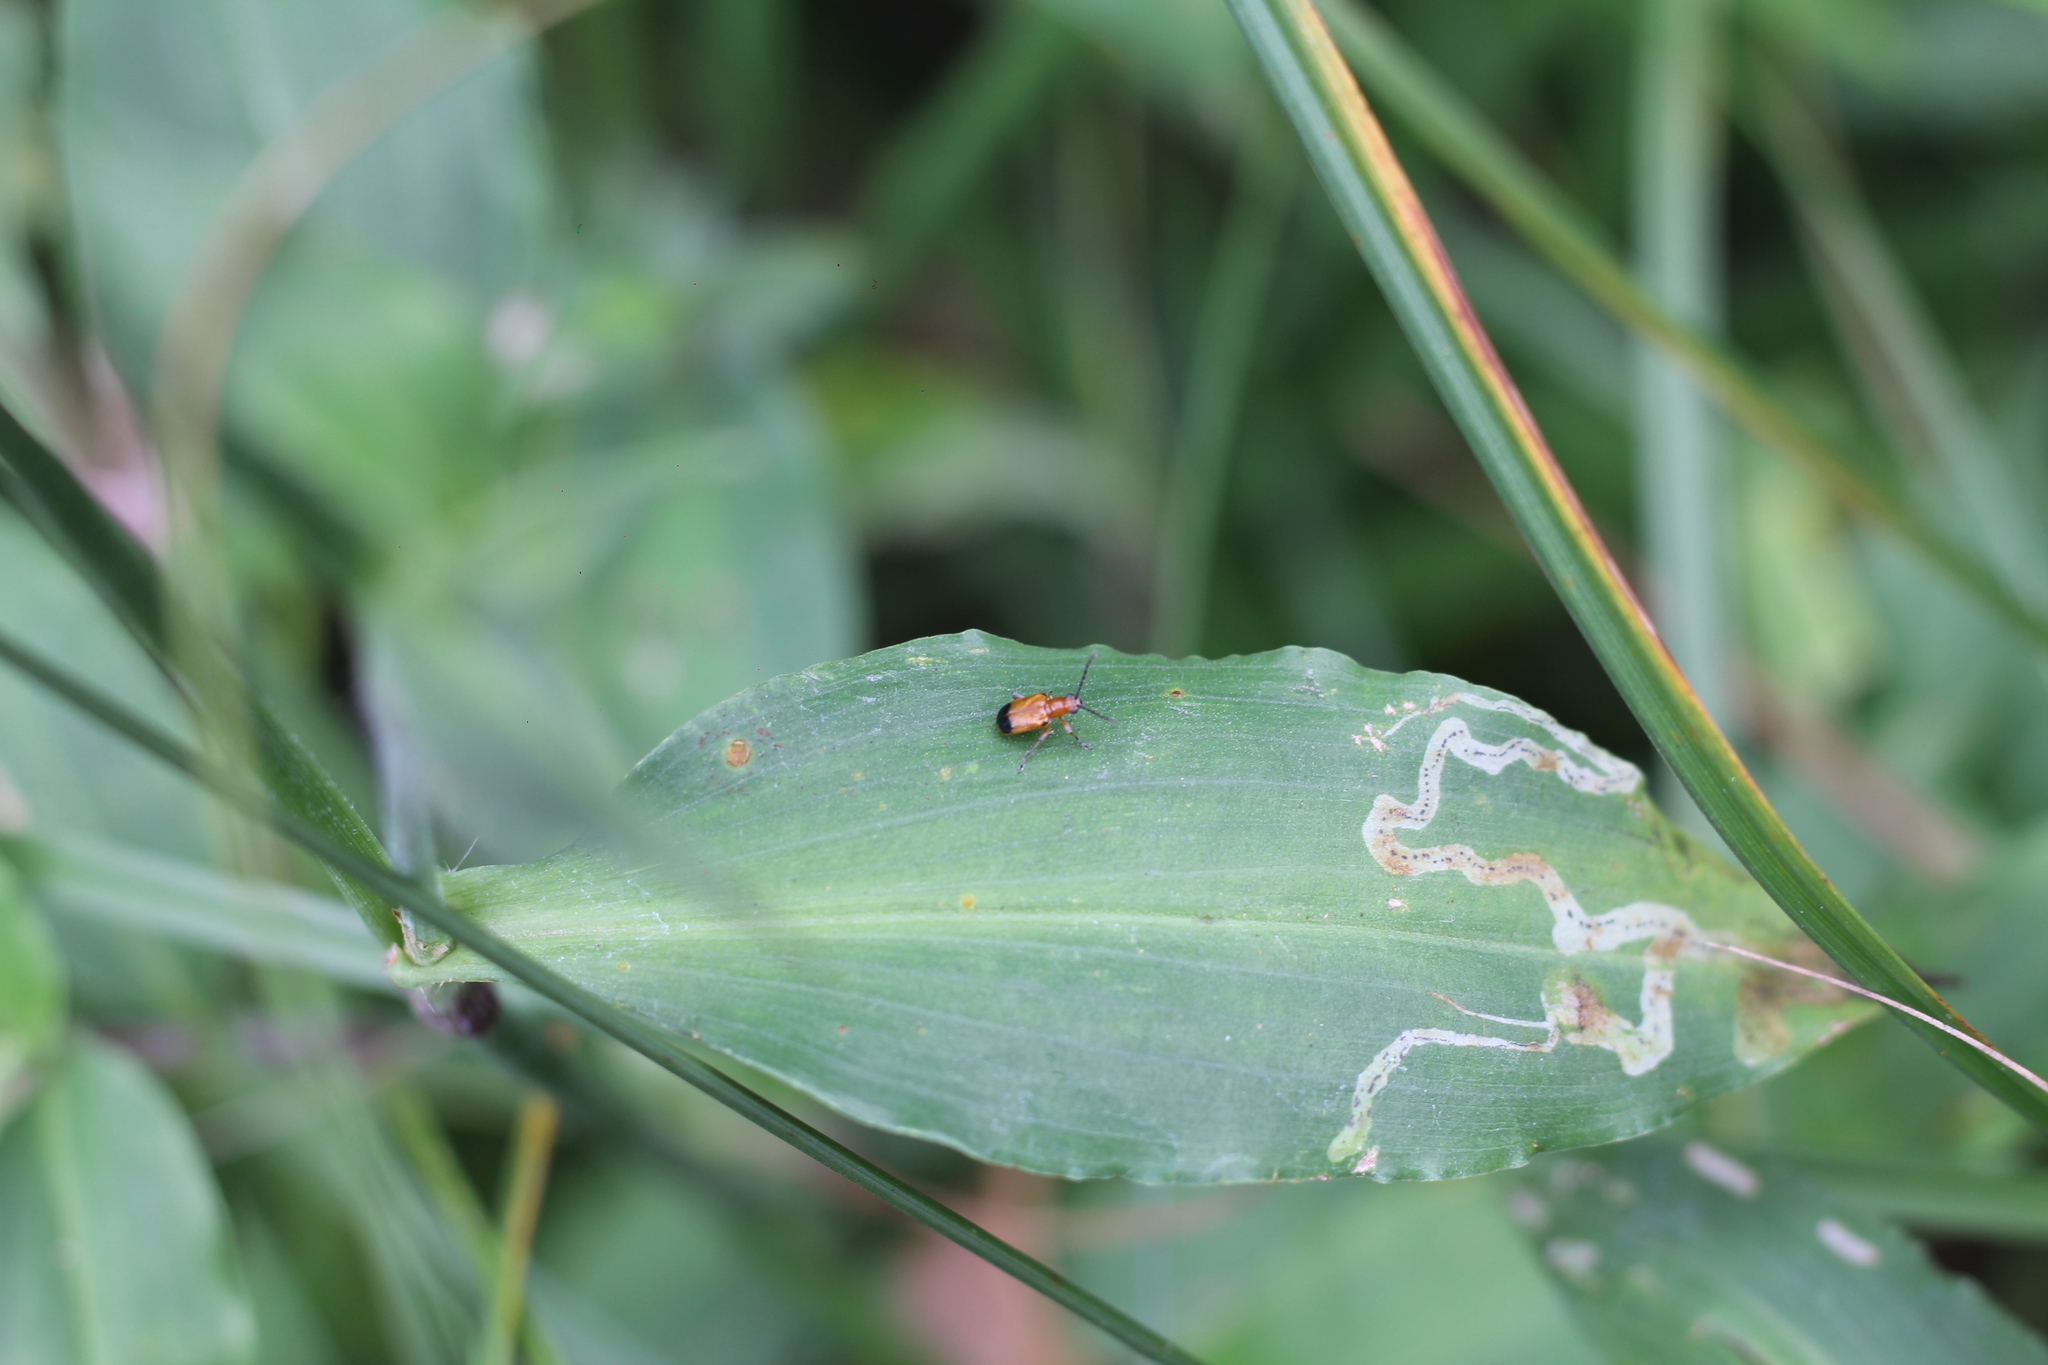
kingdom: Animalia
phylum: Arthropoda
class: Insecta
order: Coleoptera
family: Chrysomelidae
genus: Neolema
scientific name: Neolema dorsalis
